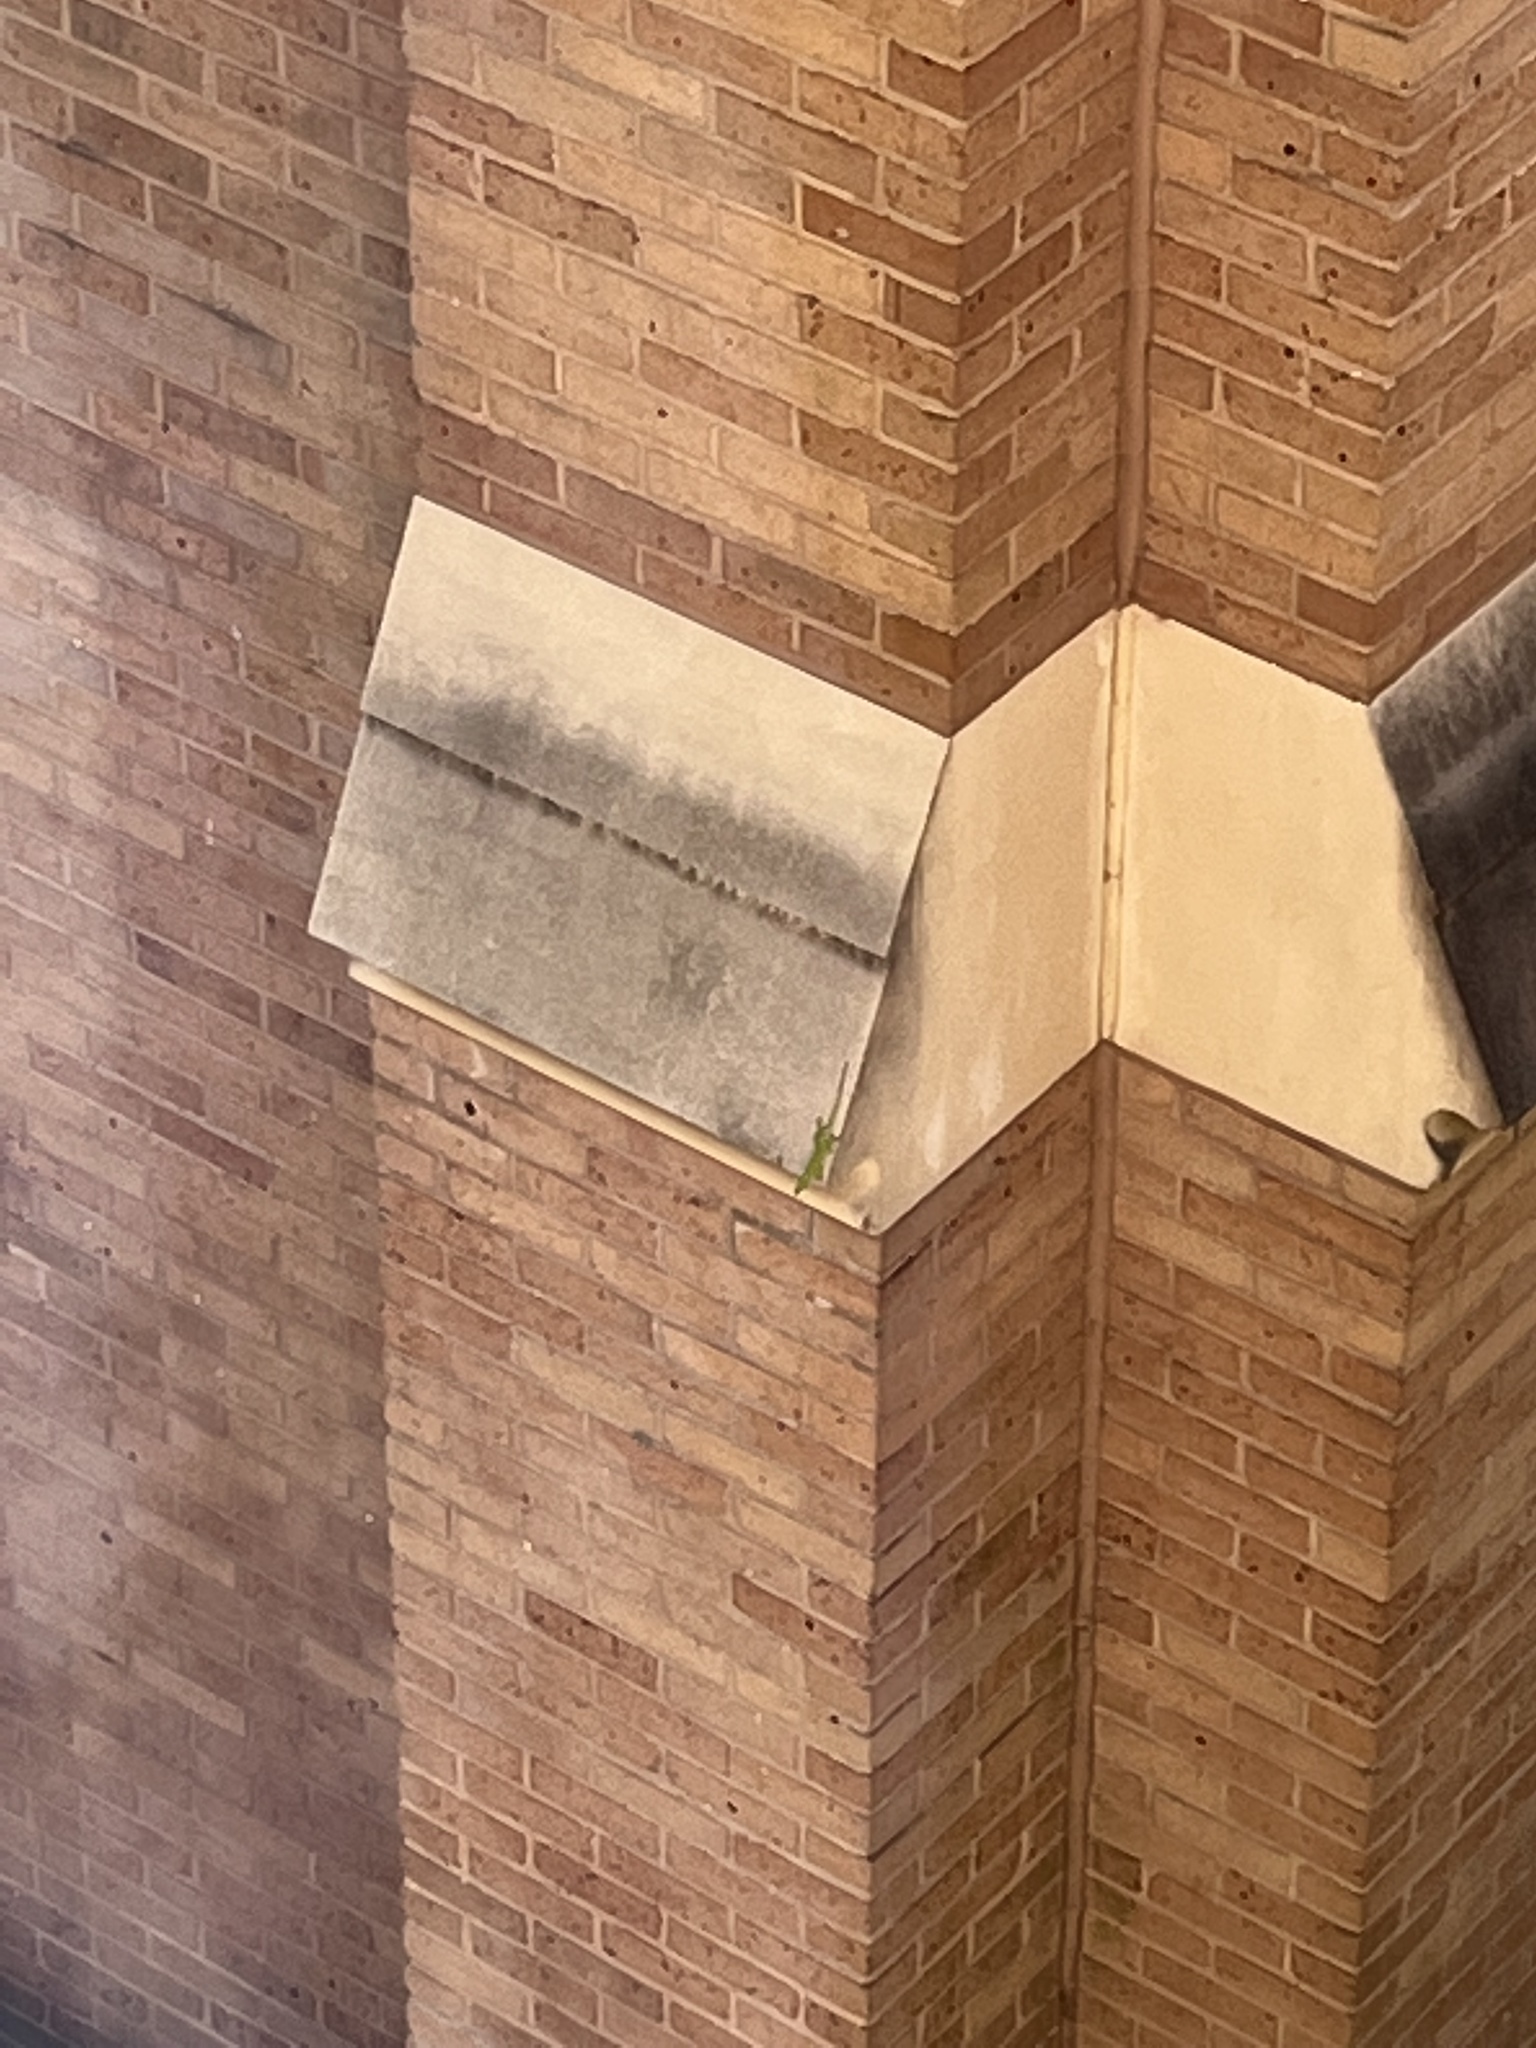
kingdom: Animalia
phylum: Chordata
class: Squamata
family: Dactyloidae
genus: Anolis
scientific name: Anolis carolinensis
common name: Green anole
